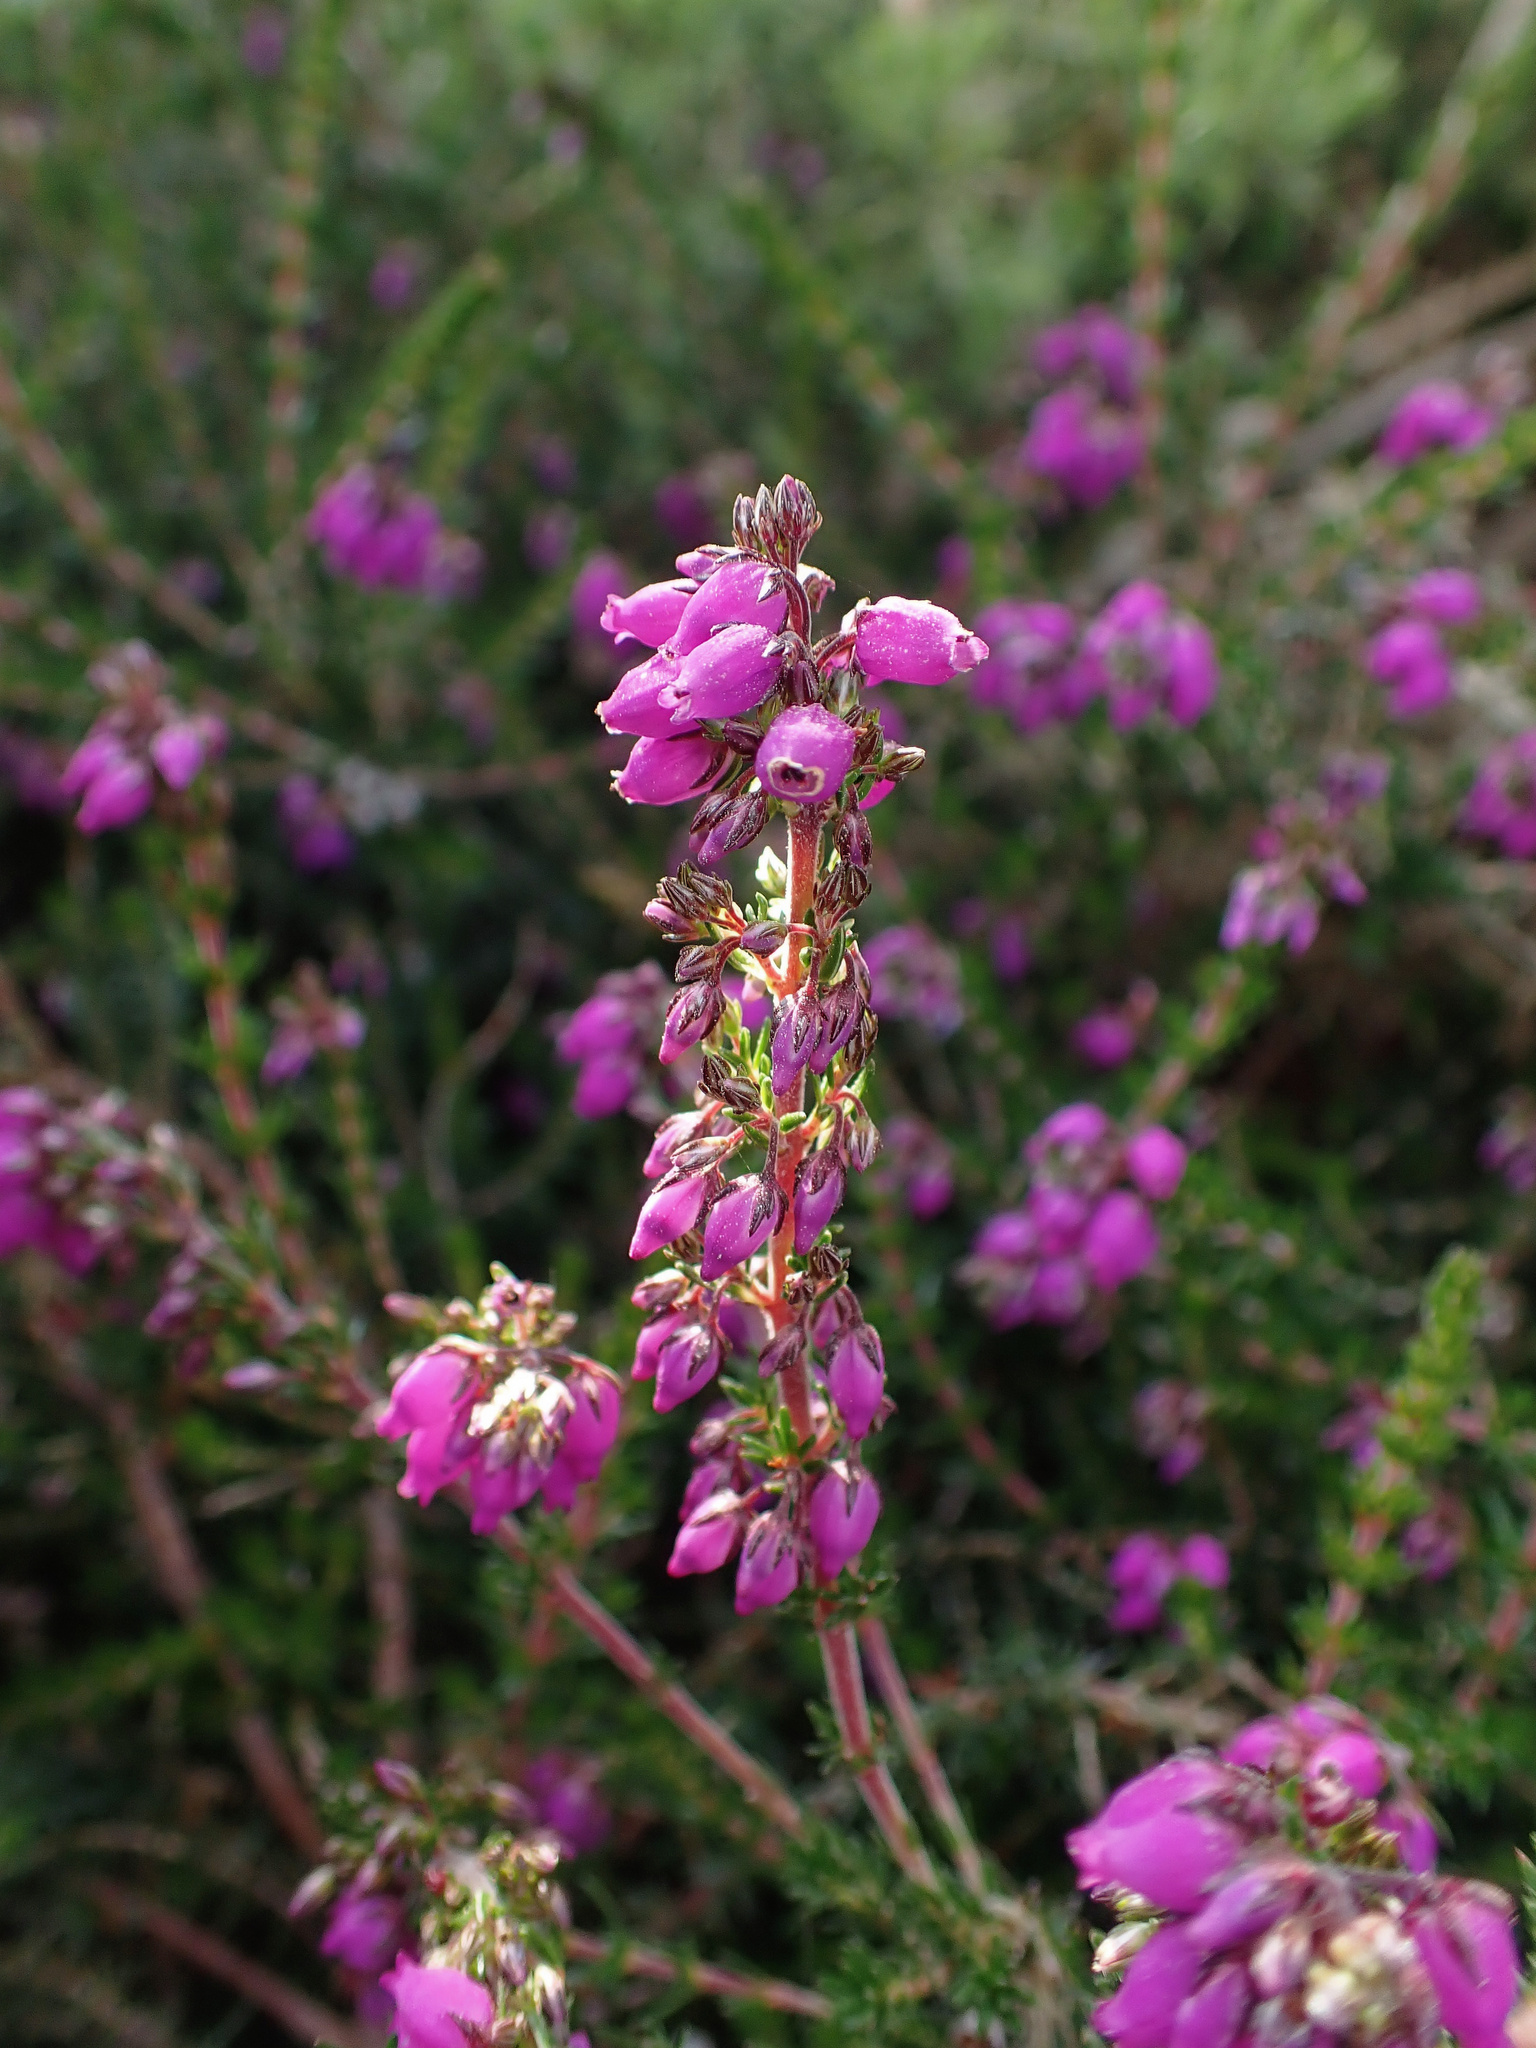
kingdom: Plantae
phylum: Tracheophyta
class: Magnoliopsida
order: Ericales
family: Ericaceae
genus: Erica
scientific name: Erica cinerea
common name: Bell heather
